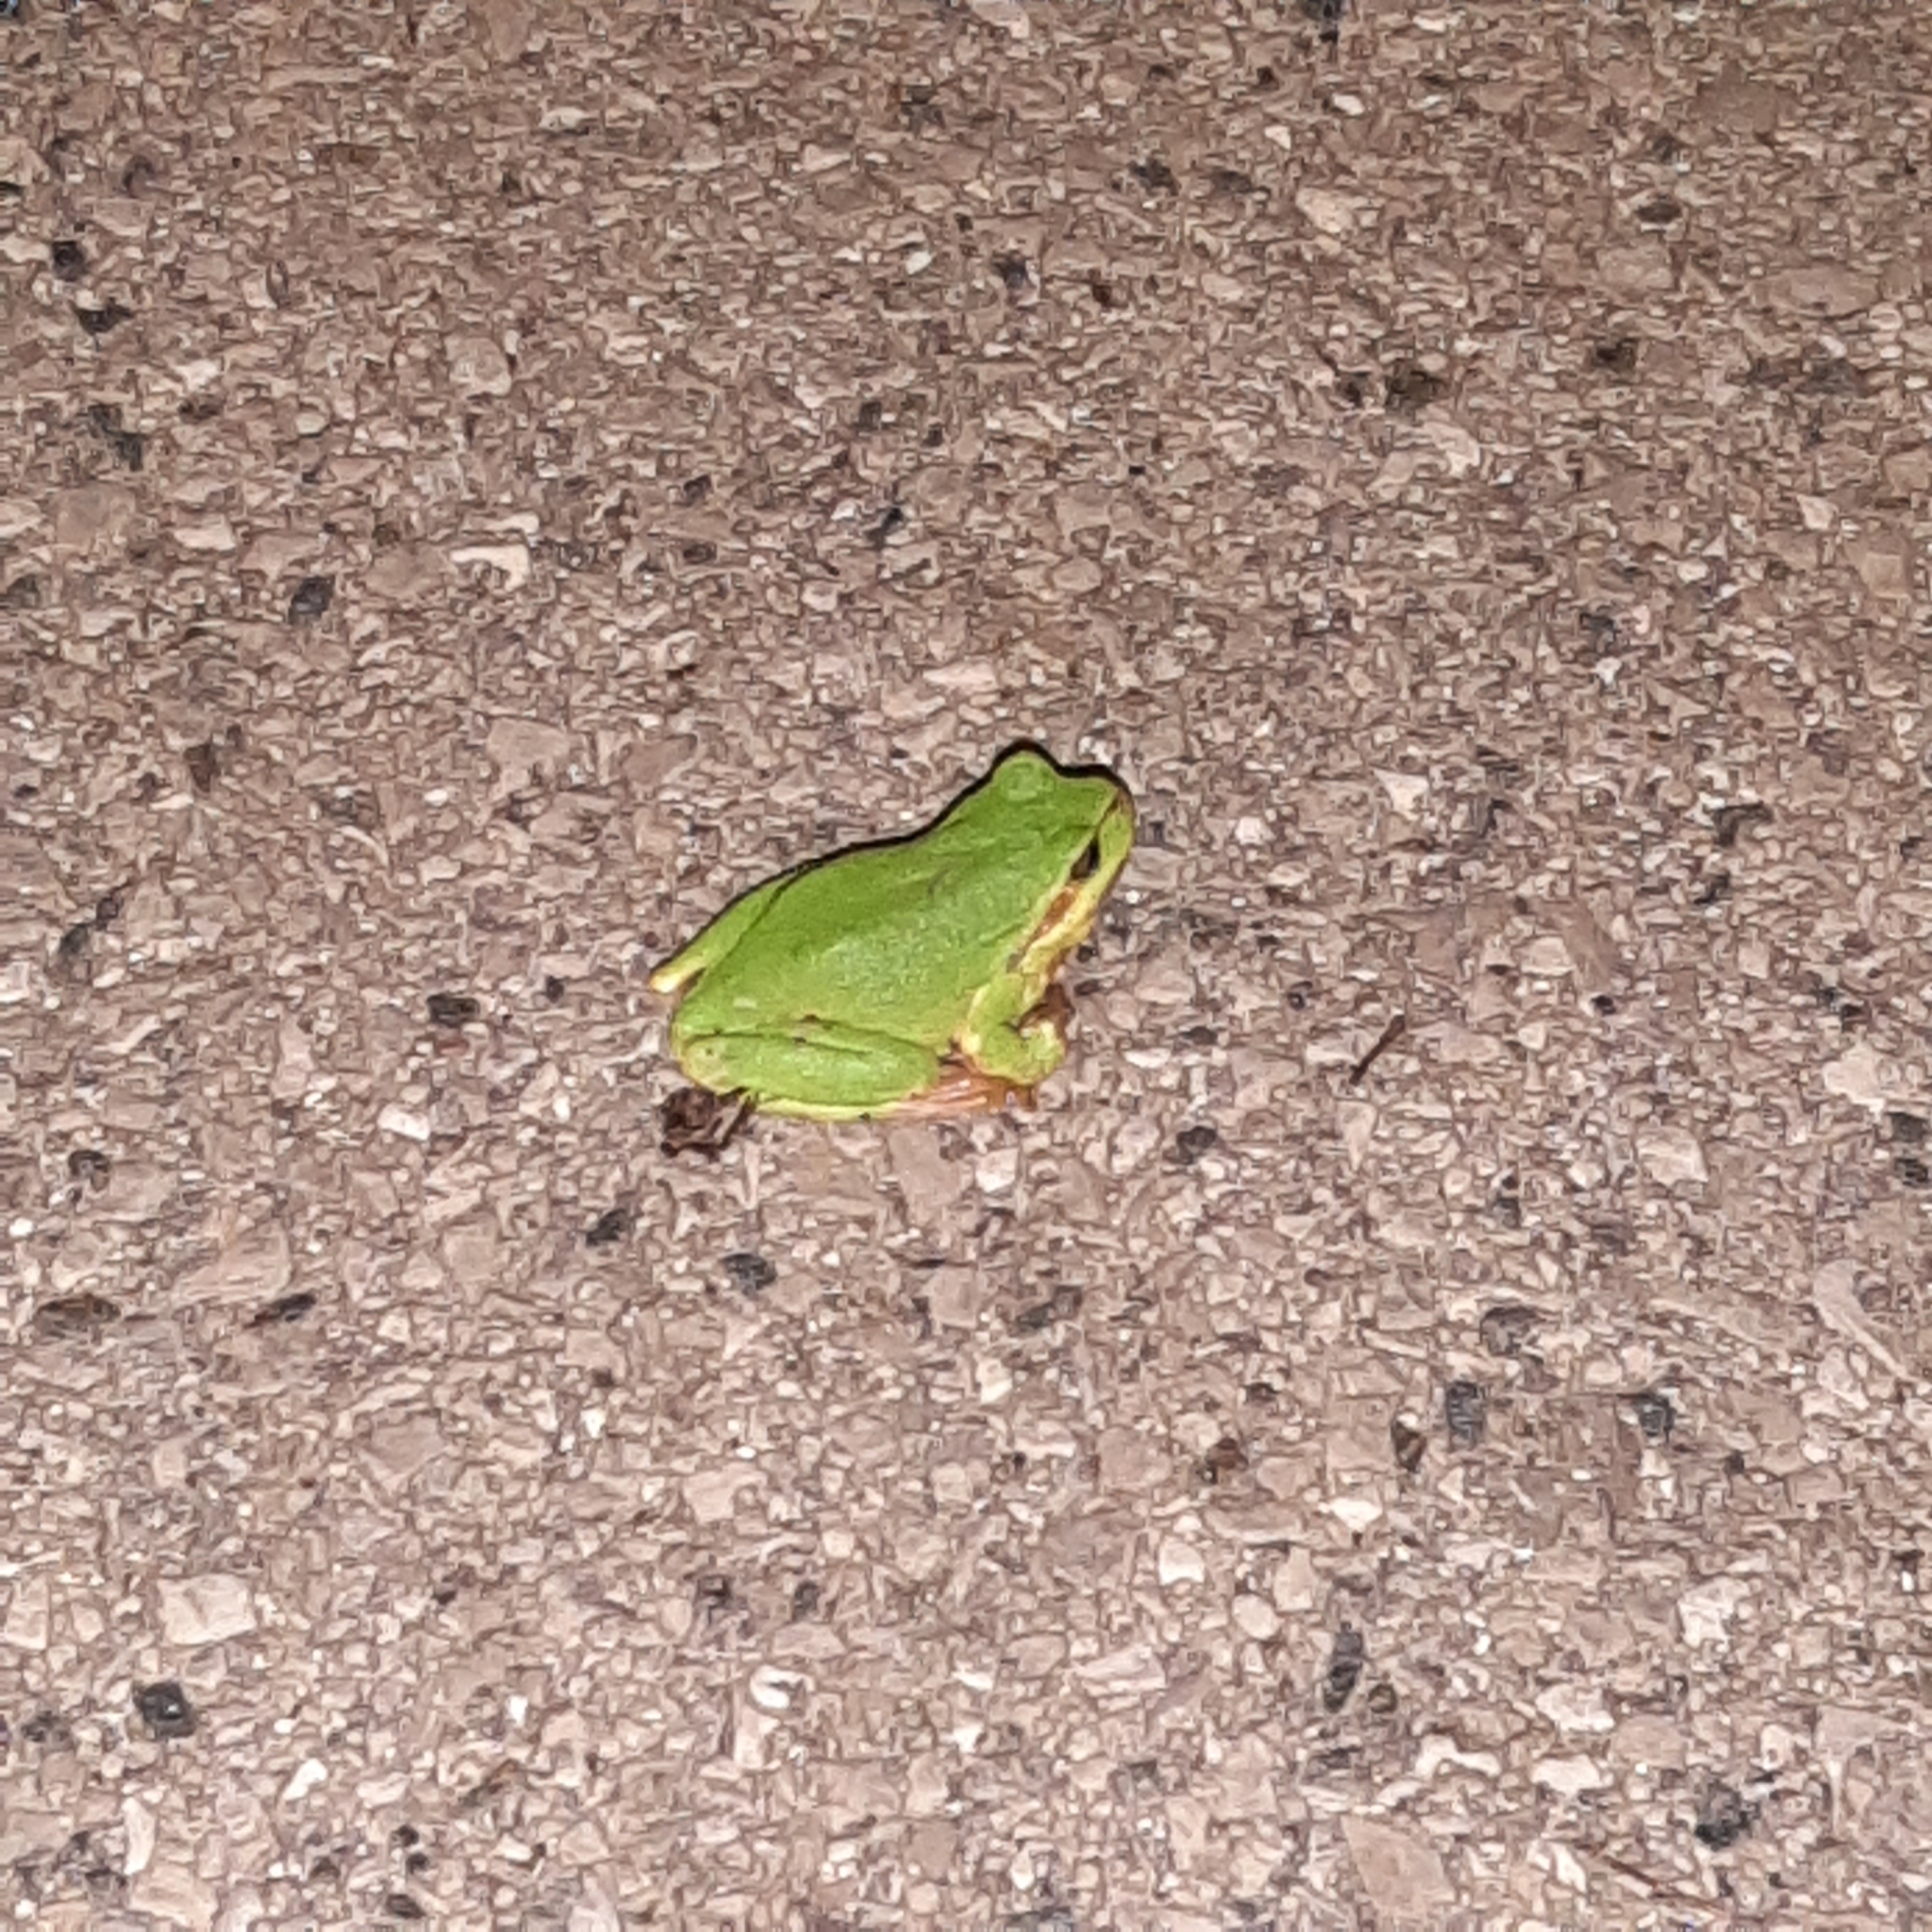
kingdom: Animalia
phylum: Chordata
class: Amphibia
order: Anura
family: Hylidae
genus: Hyla
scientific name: Hyla arborea
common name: Common tree frog
